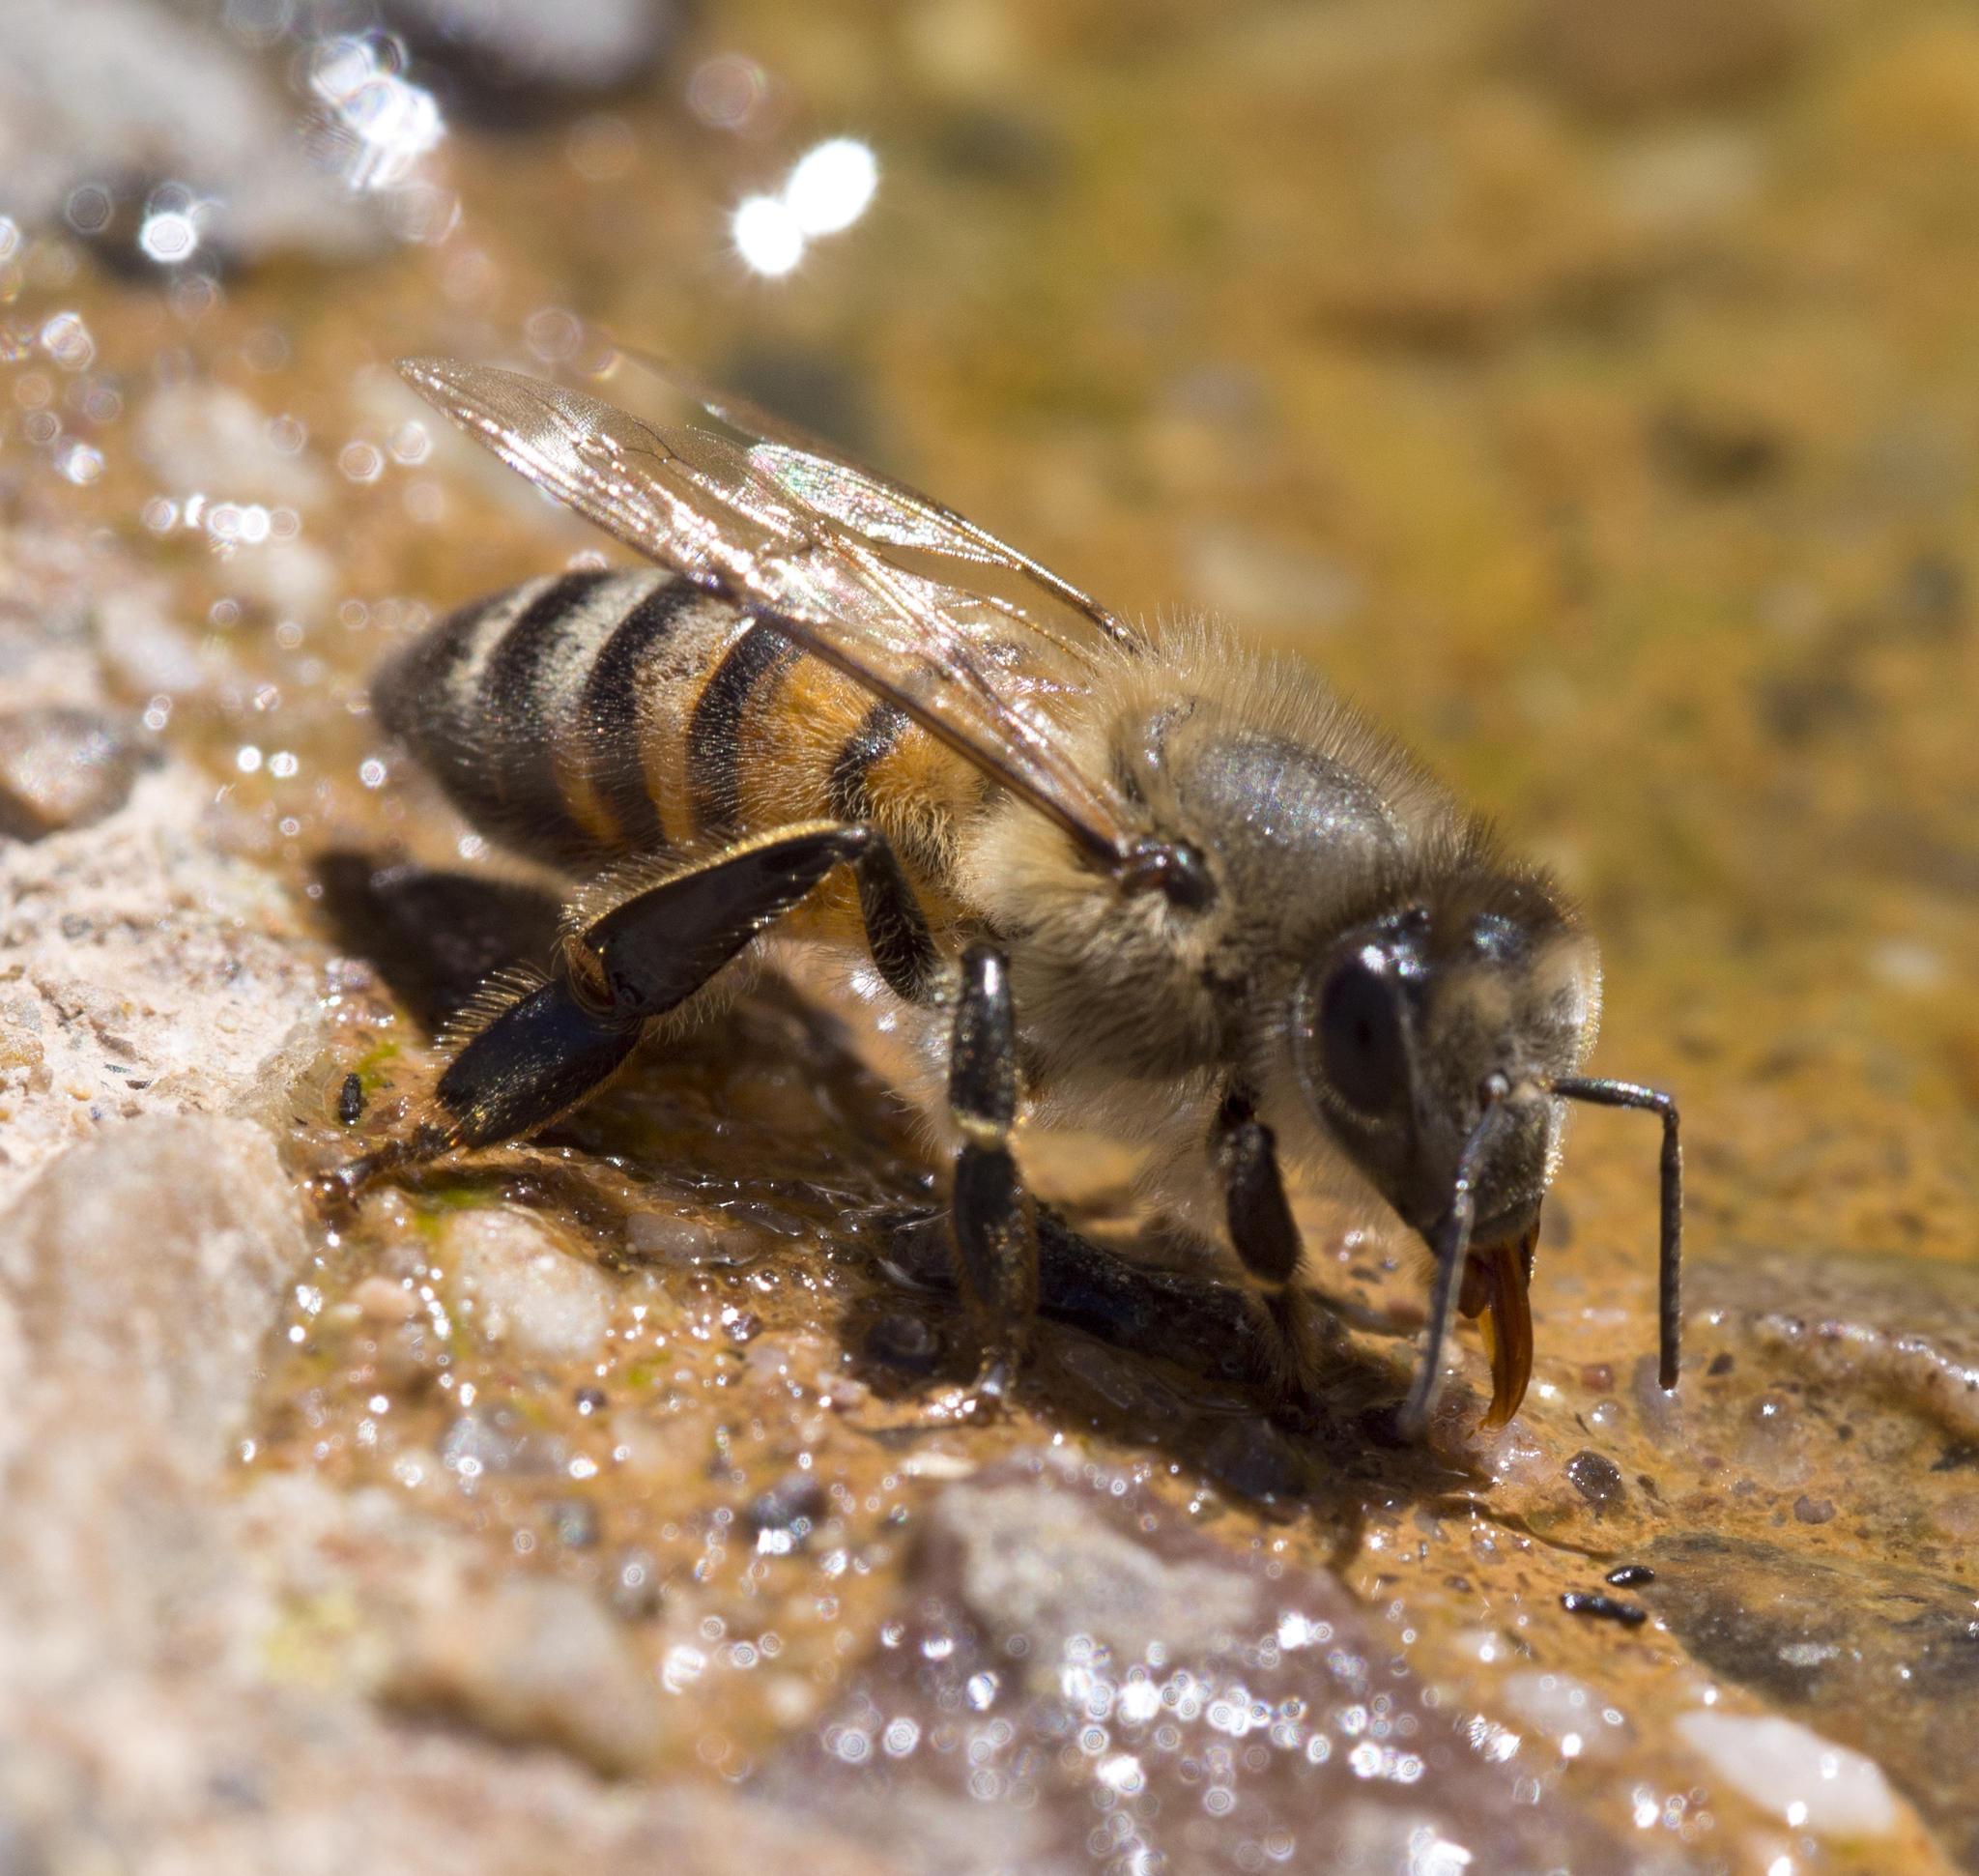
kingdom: Animalia
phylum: Arthropoda
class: Insecta
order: Hymenoptera
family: Apidae
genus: Apis
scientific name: Apis mellifera
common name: Honey bee
